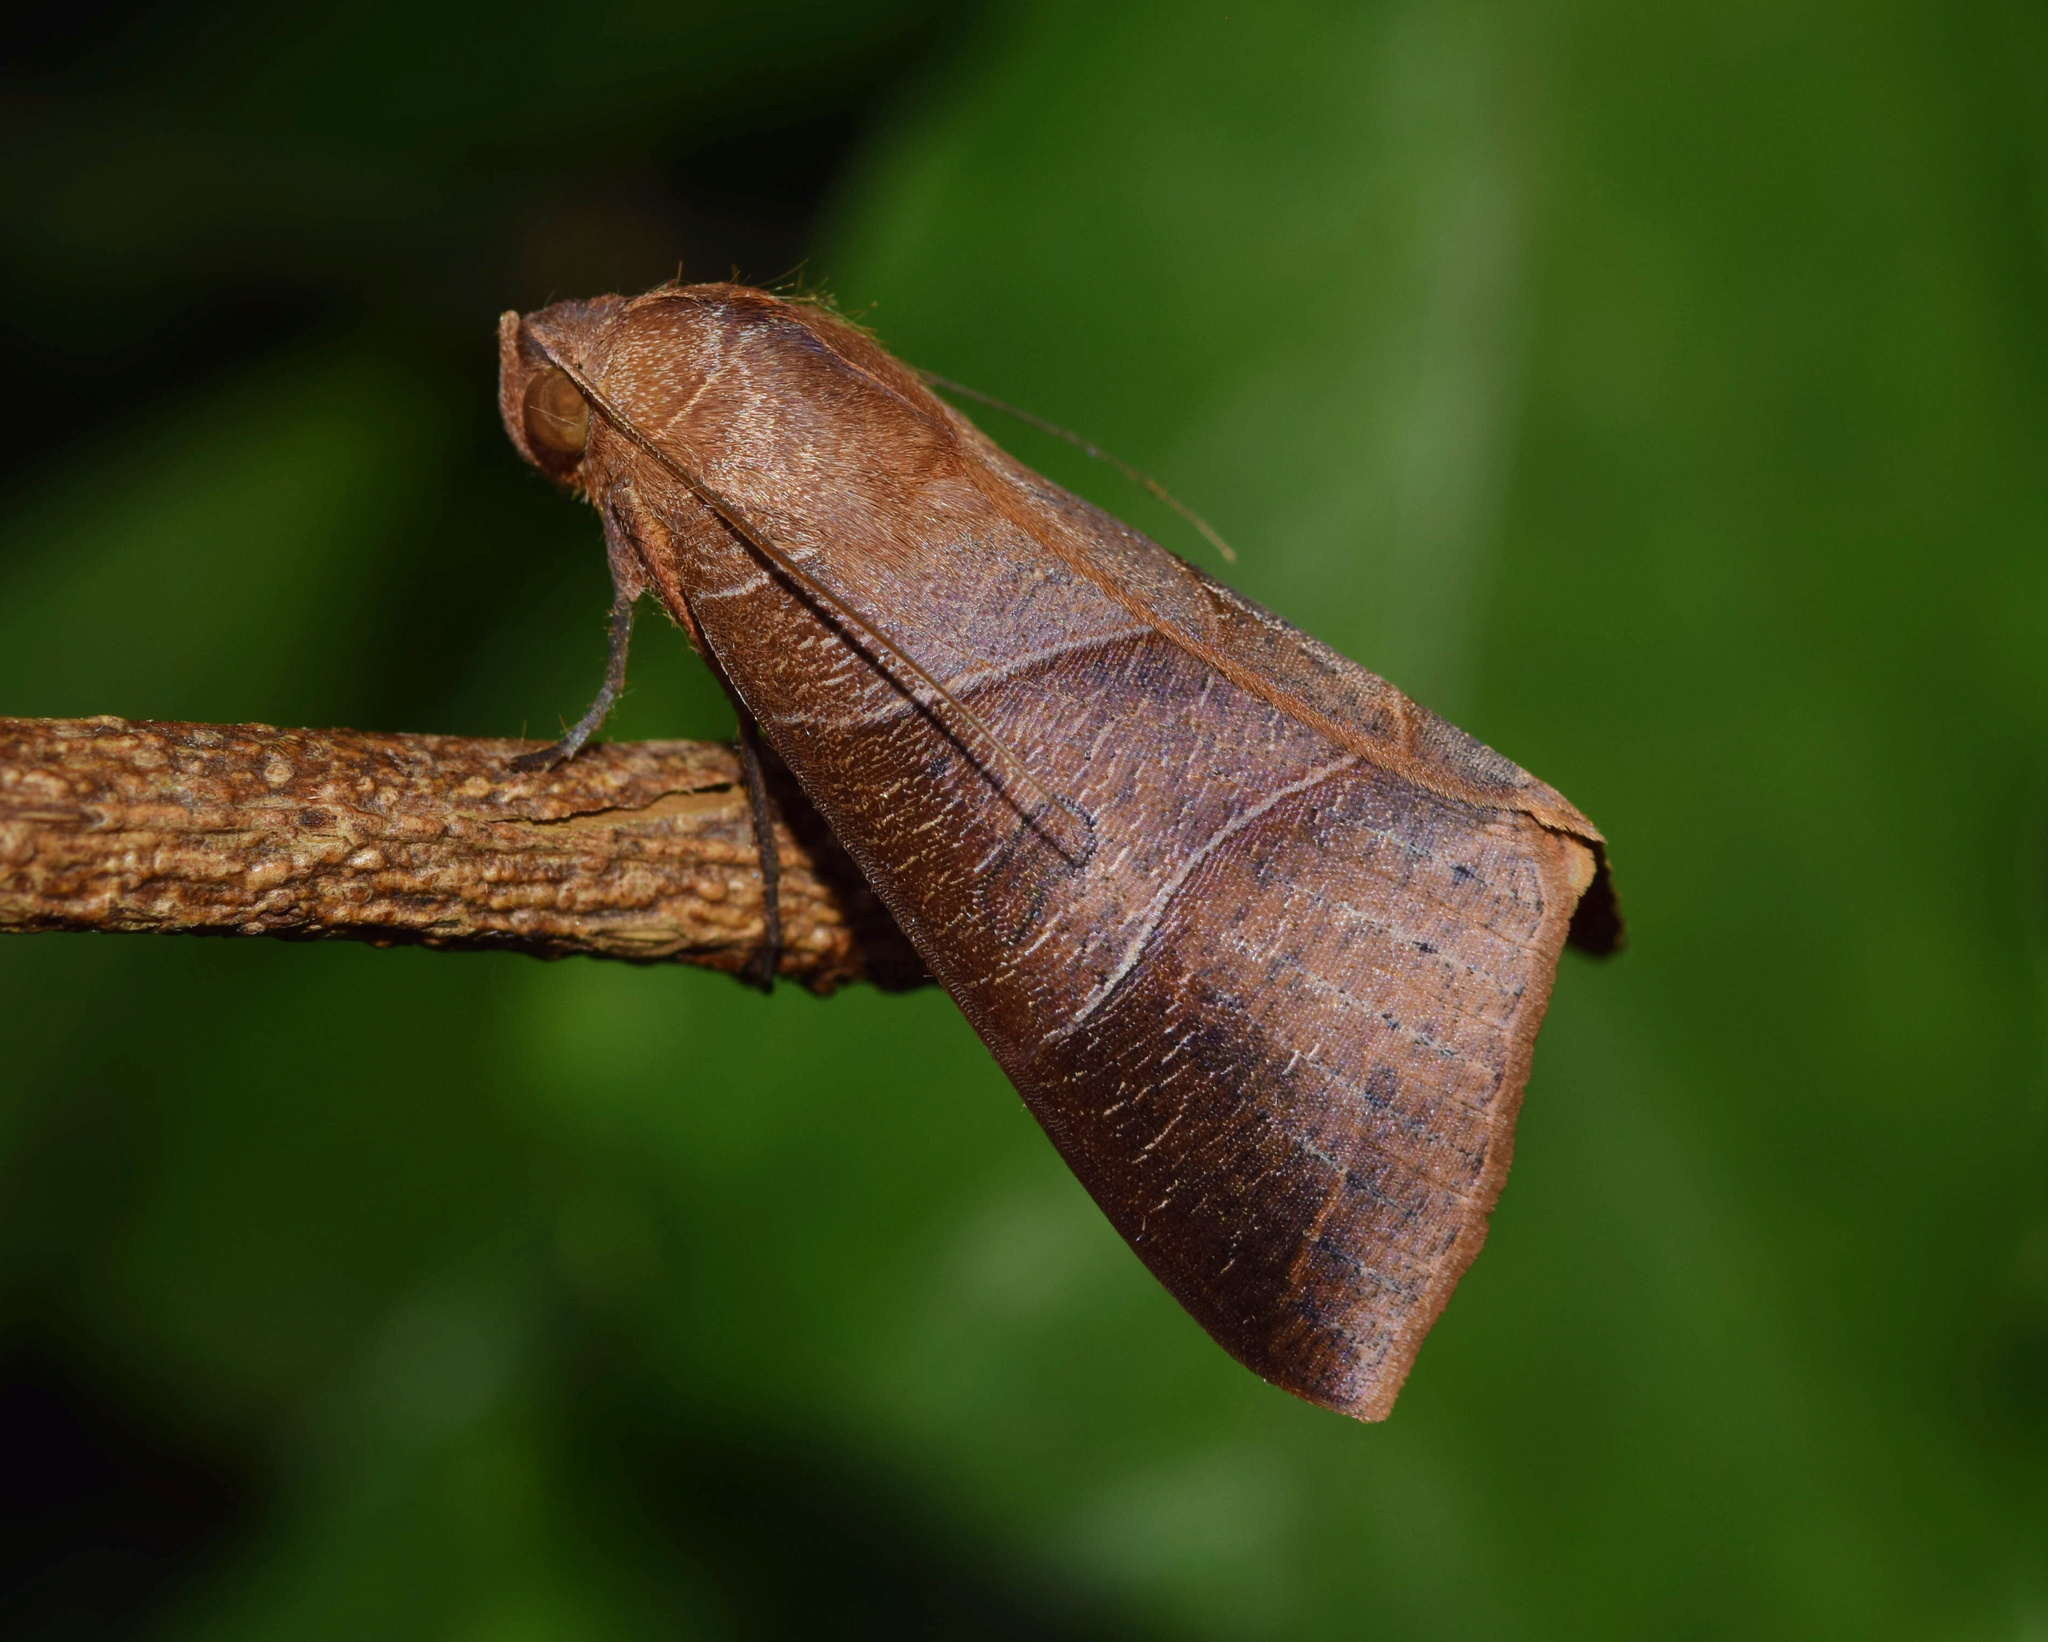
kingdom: Animalia
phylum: Arthropoda
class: Insecta
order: Lepidoptera
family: Erebidae
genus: Dermaleipa
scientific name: Dermaleipa rubricata
